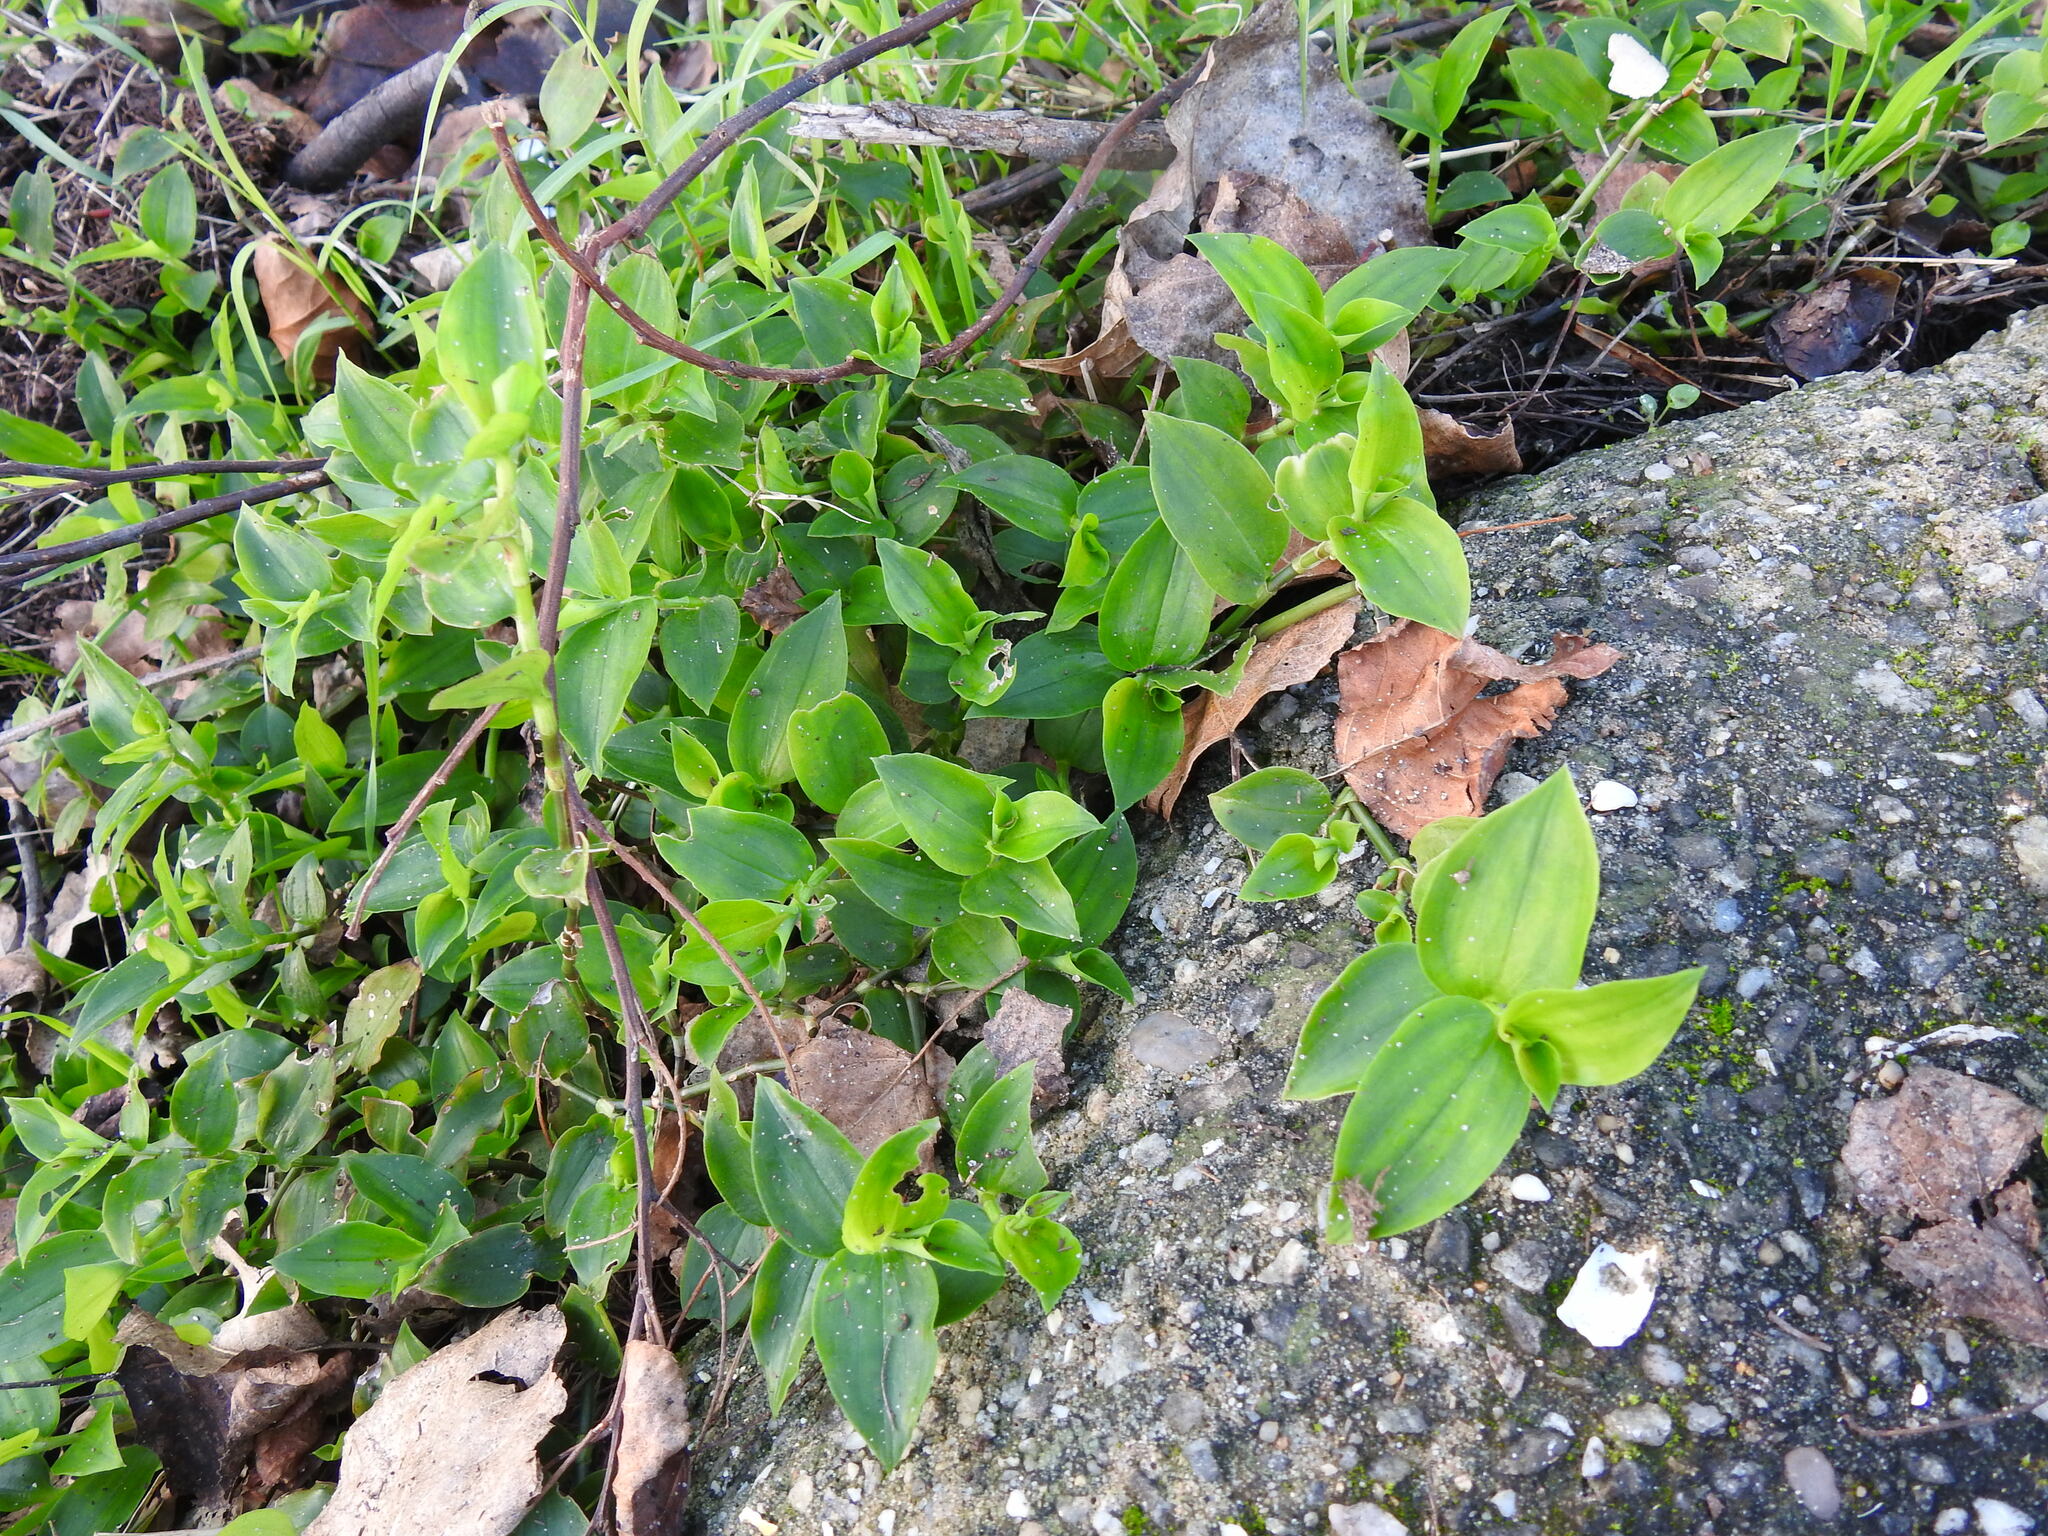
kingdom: Plantae
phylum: Tracheophyta
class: Liliopsida
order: Commelinales
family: Commelinaceae
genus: Tradescantia
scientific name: Tradescantia fluminensis
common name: Wandering-jew
